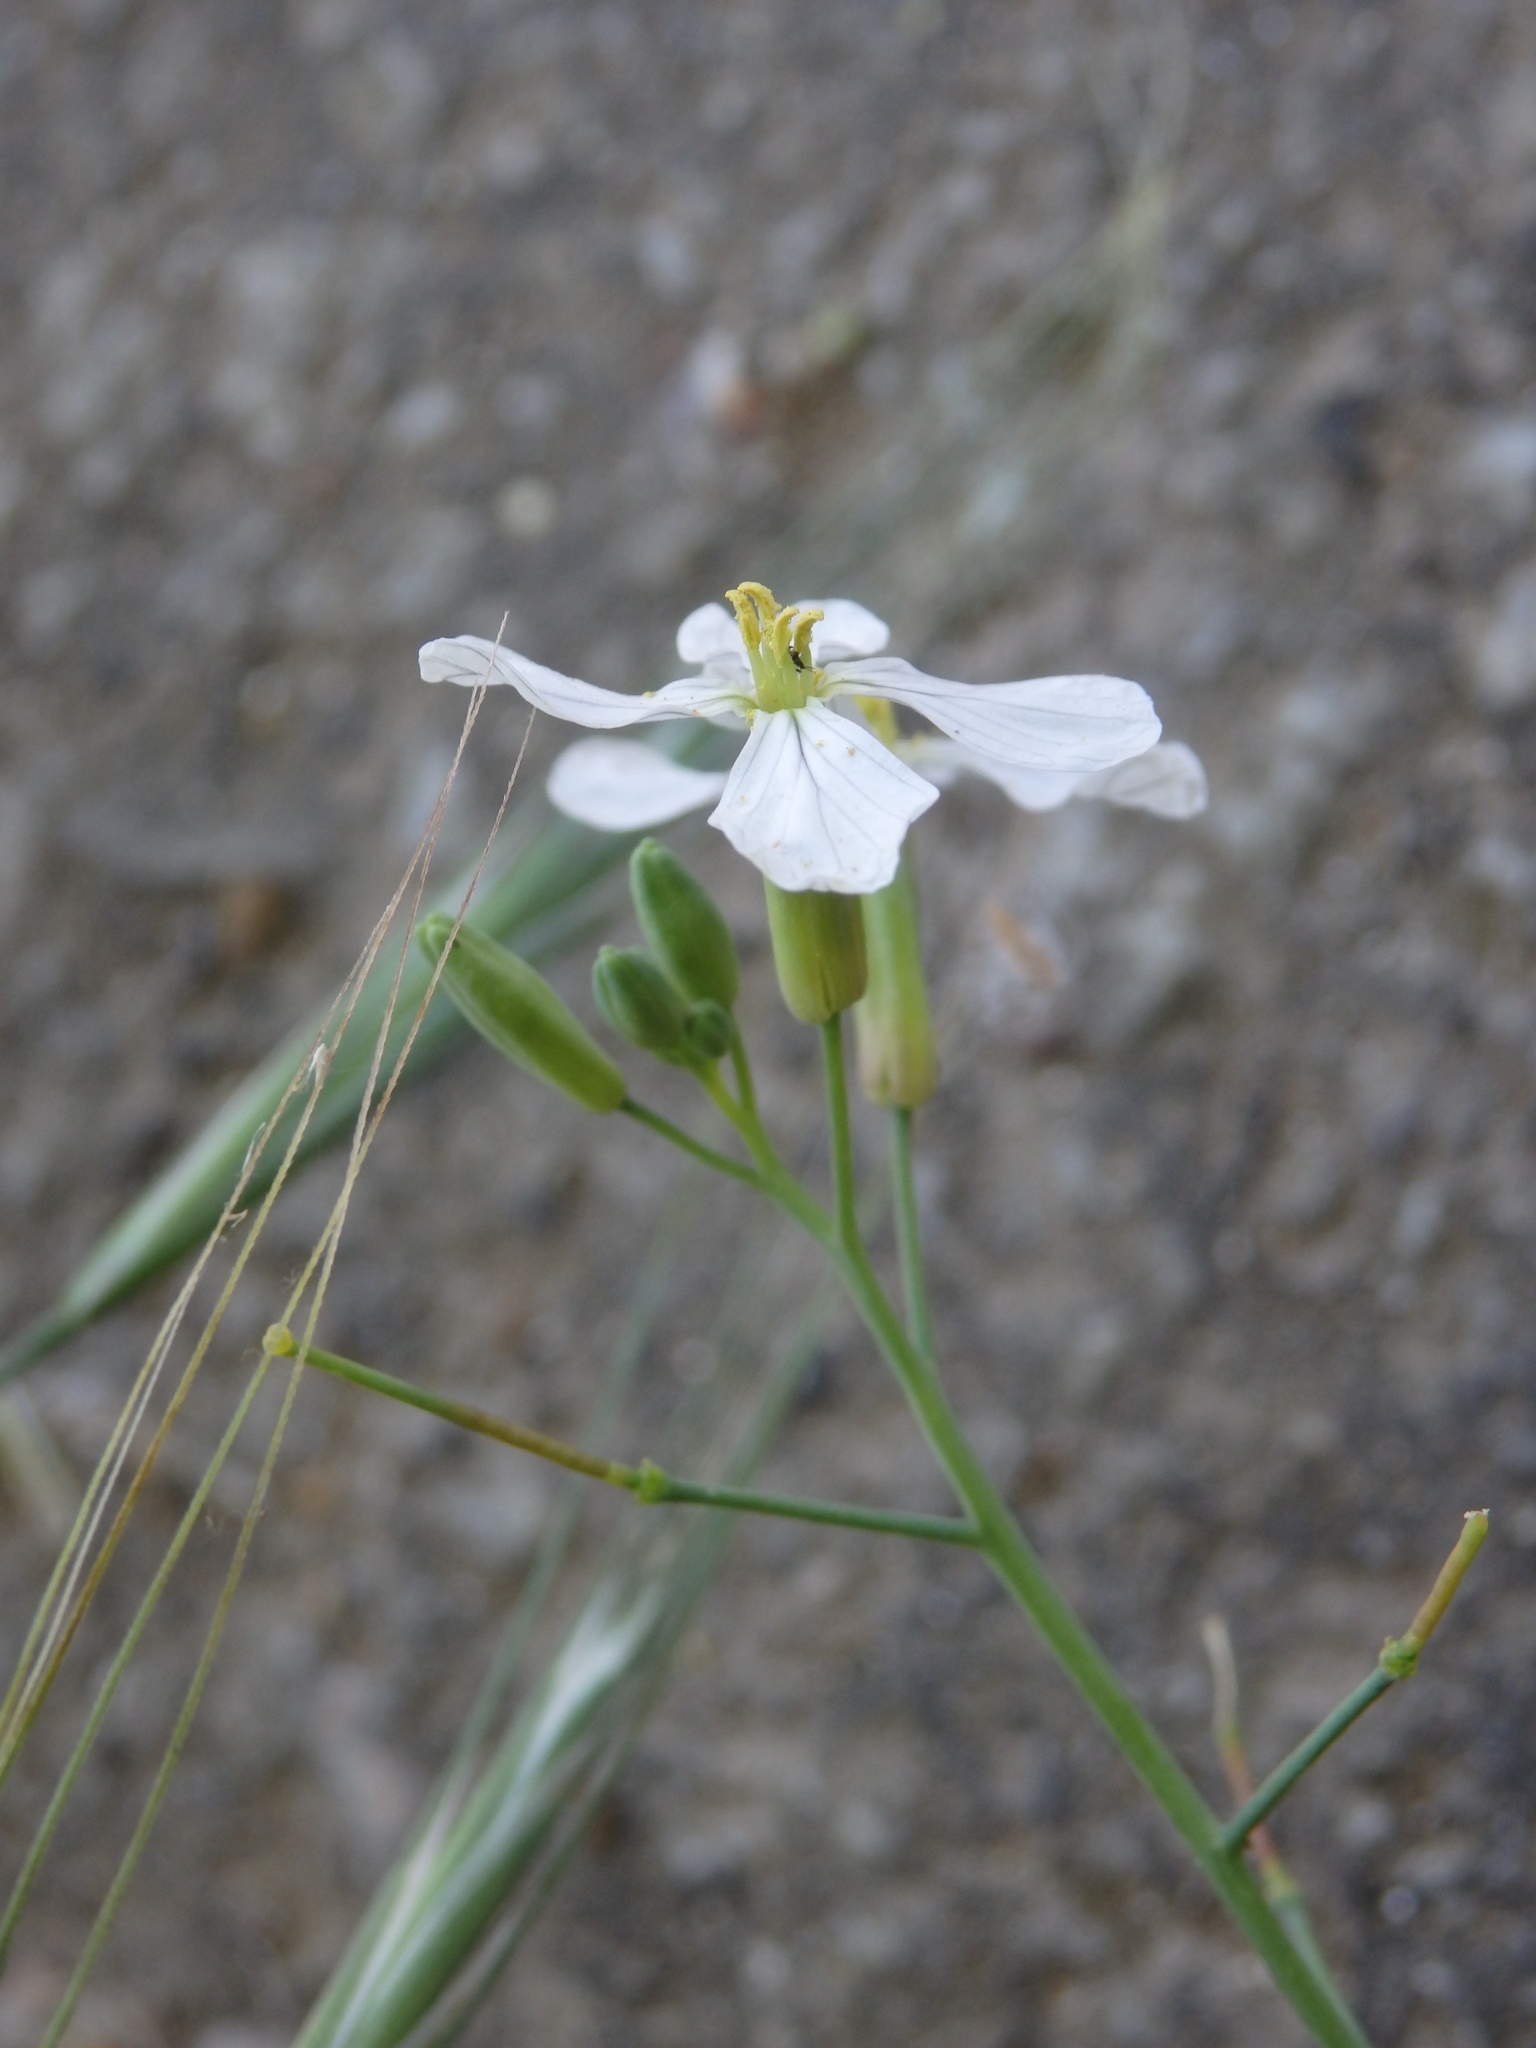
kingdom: Plantae
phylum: Tracheophyta
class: Magnoliopsida
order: Brassicales
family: Brassicaceae
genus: Raphanus
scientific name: Raphanus raphanistrum
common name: Wild radish
